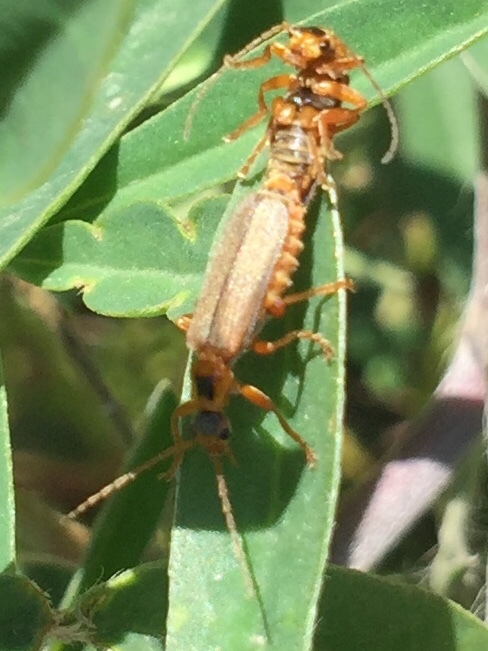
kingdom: Animalia
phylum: Arthropoda
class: Insecta
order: Coleoptera
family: Cantharidae
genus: Cultellunguis
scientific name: Cultellunguis americanus
